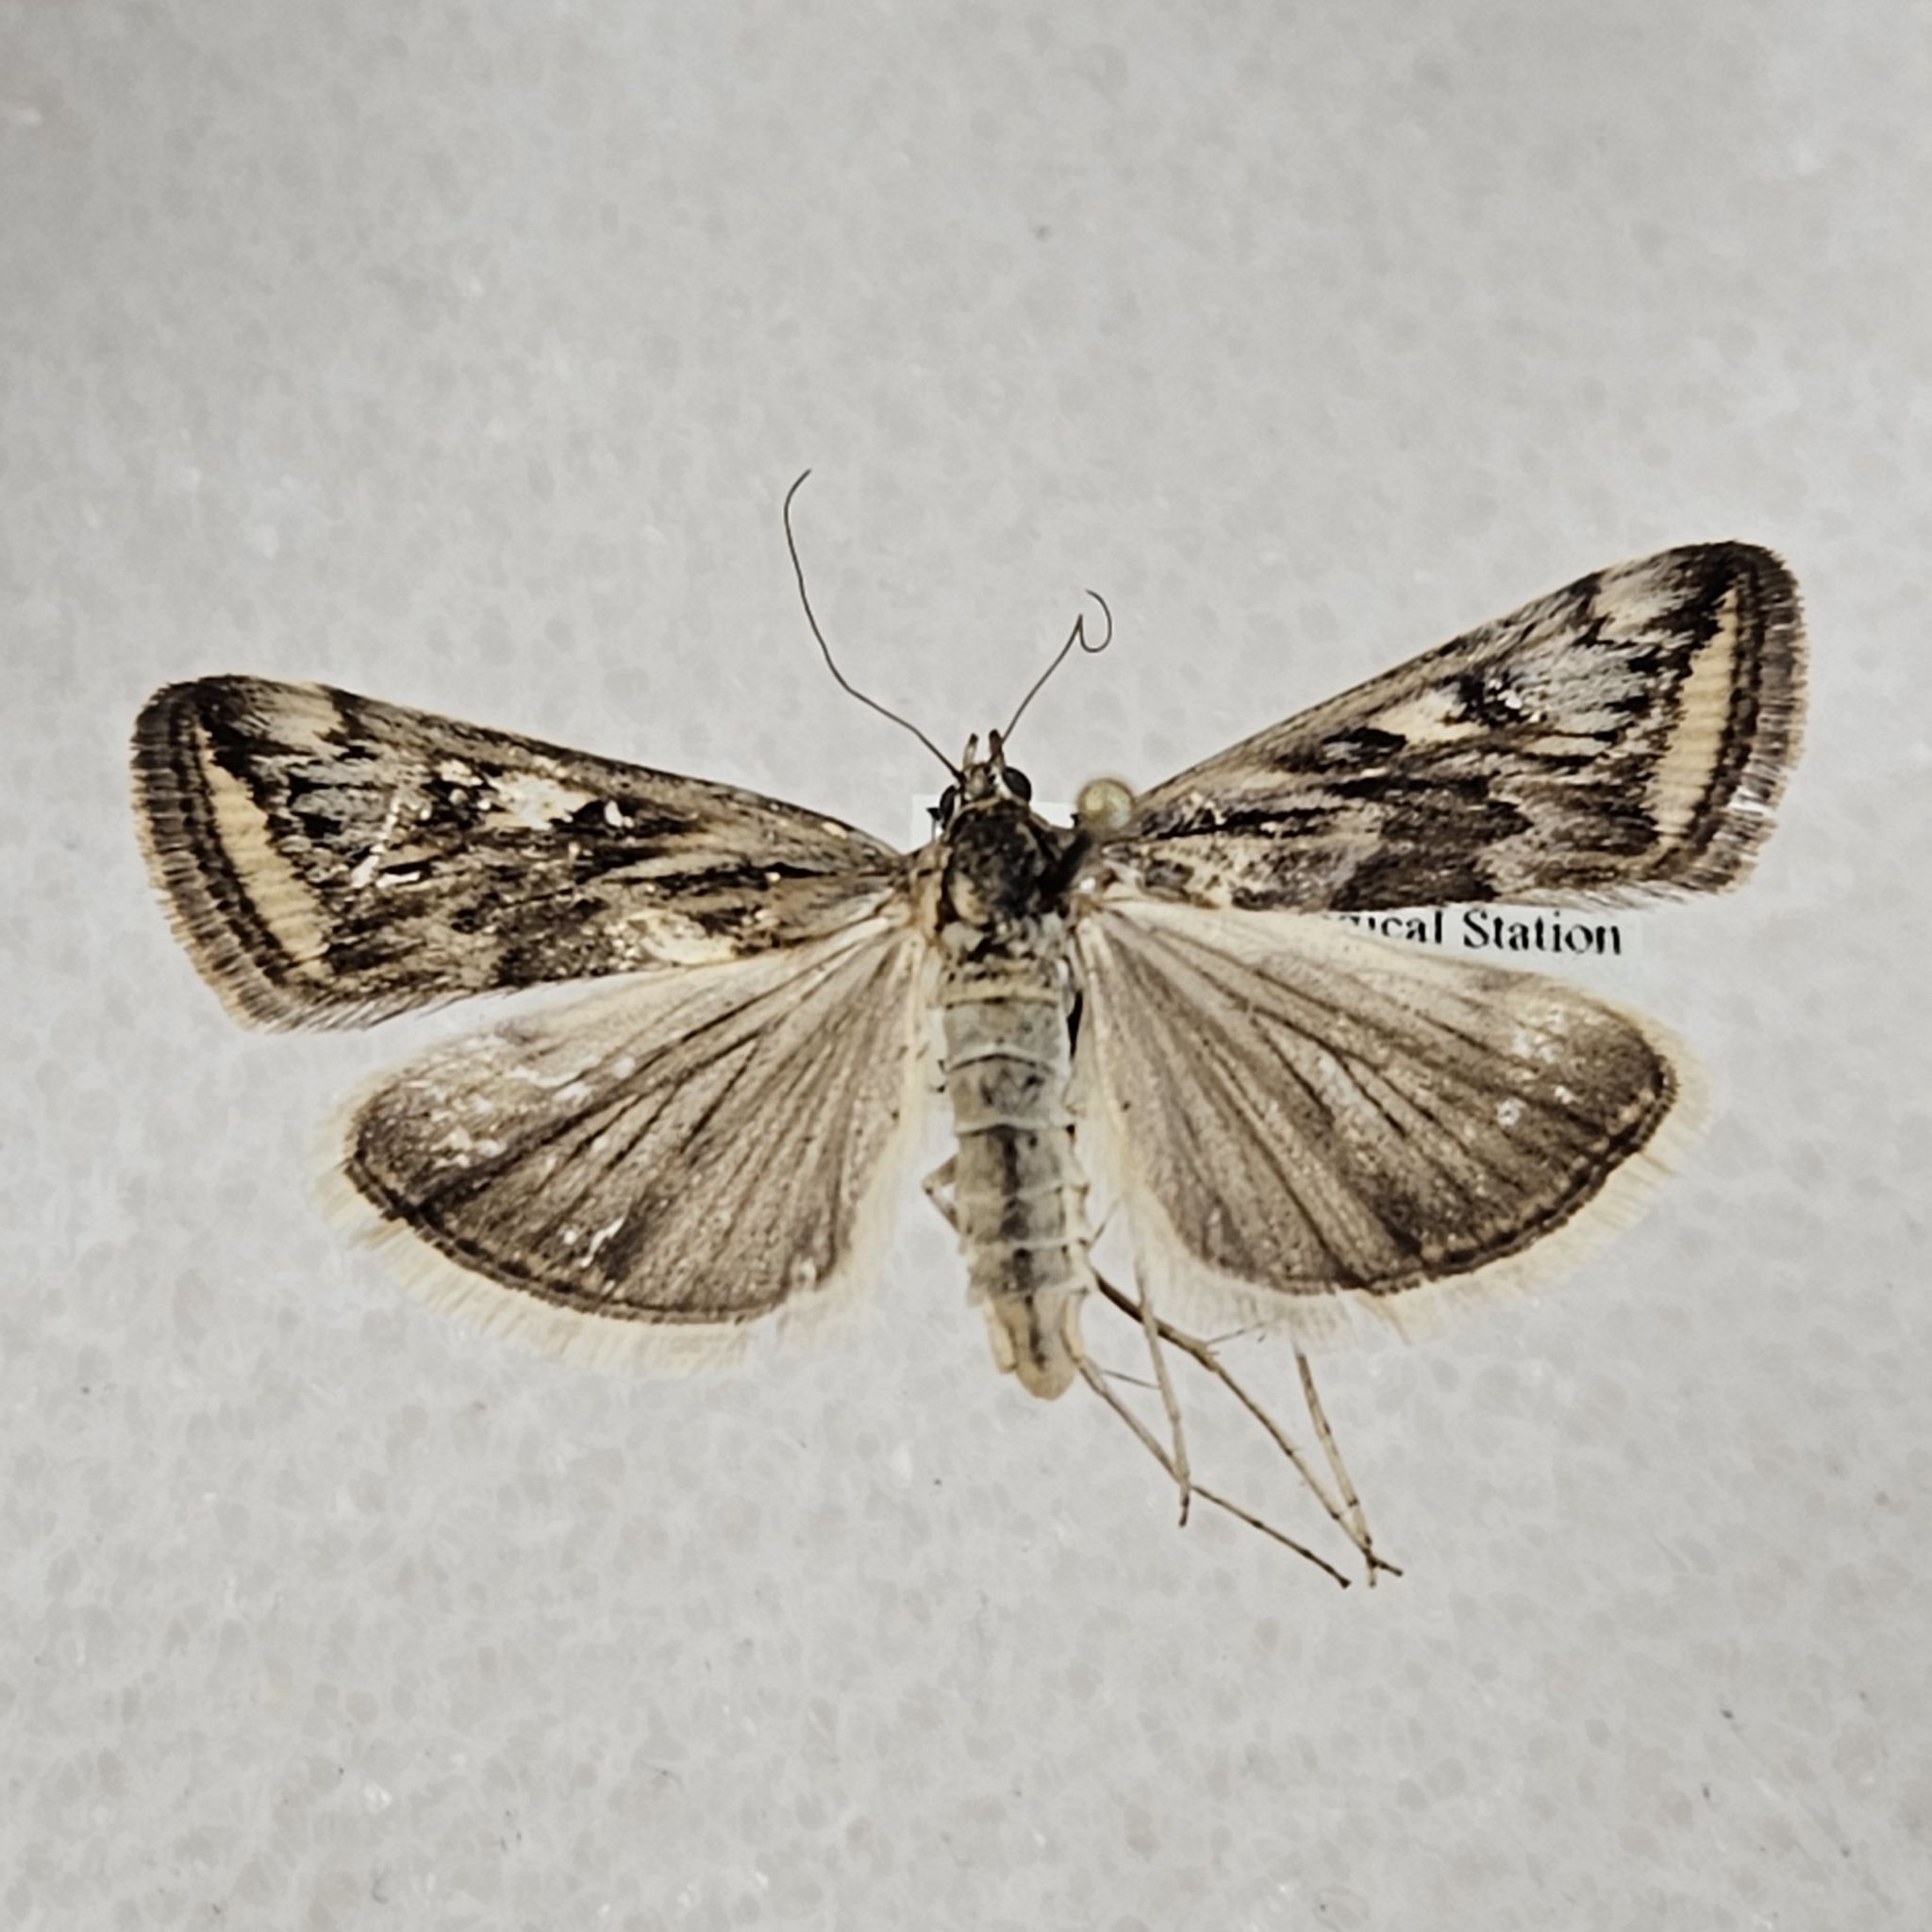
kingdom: Animalia
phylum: Arthropoda
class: Insecta
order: Lepidoptera
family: Crambidae
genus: Loxostege
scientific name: Loxostege cereralis
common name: Alfalfa webworm moth
